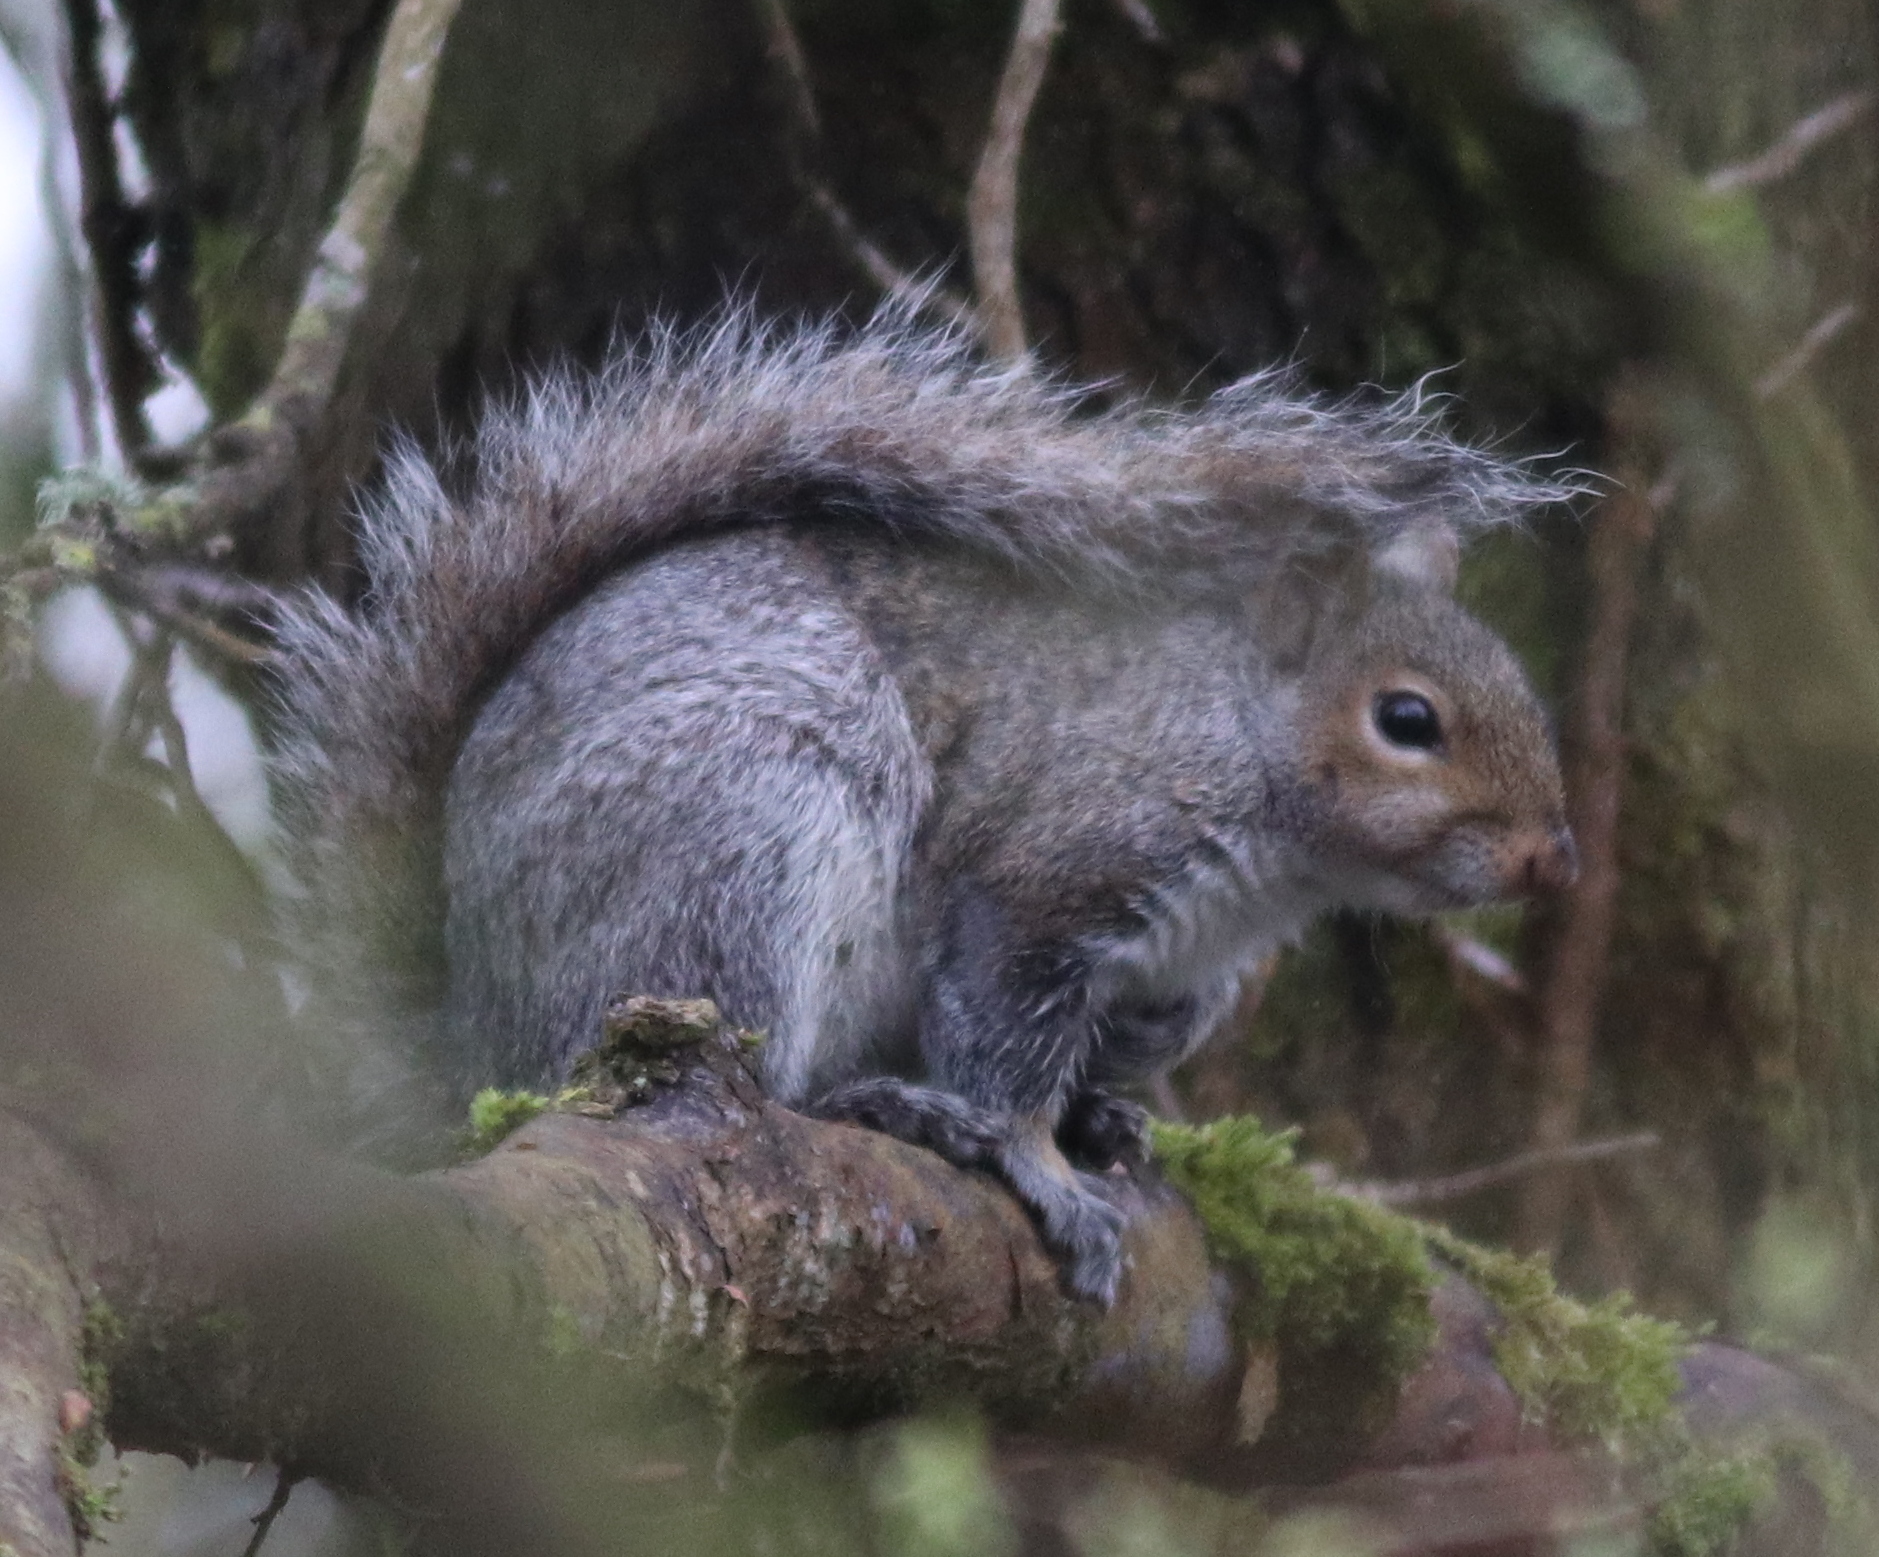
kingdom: Animalia
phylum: Chordata
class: Mammalia
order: Rodentia
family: Sciuridae
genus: Sciurus
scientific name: Sciurus carolinensis
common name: Eastern gray squirrel
